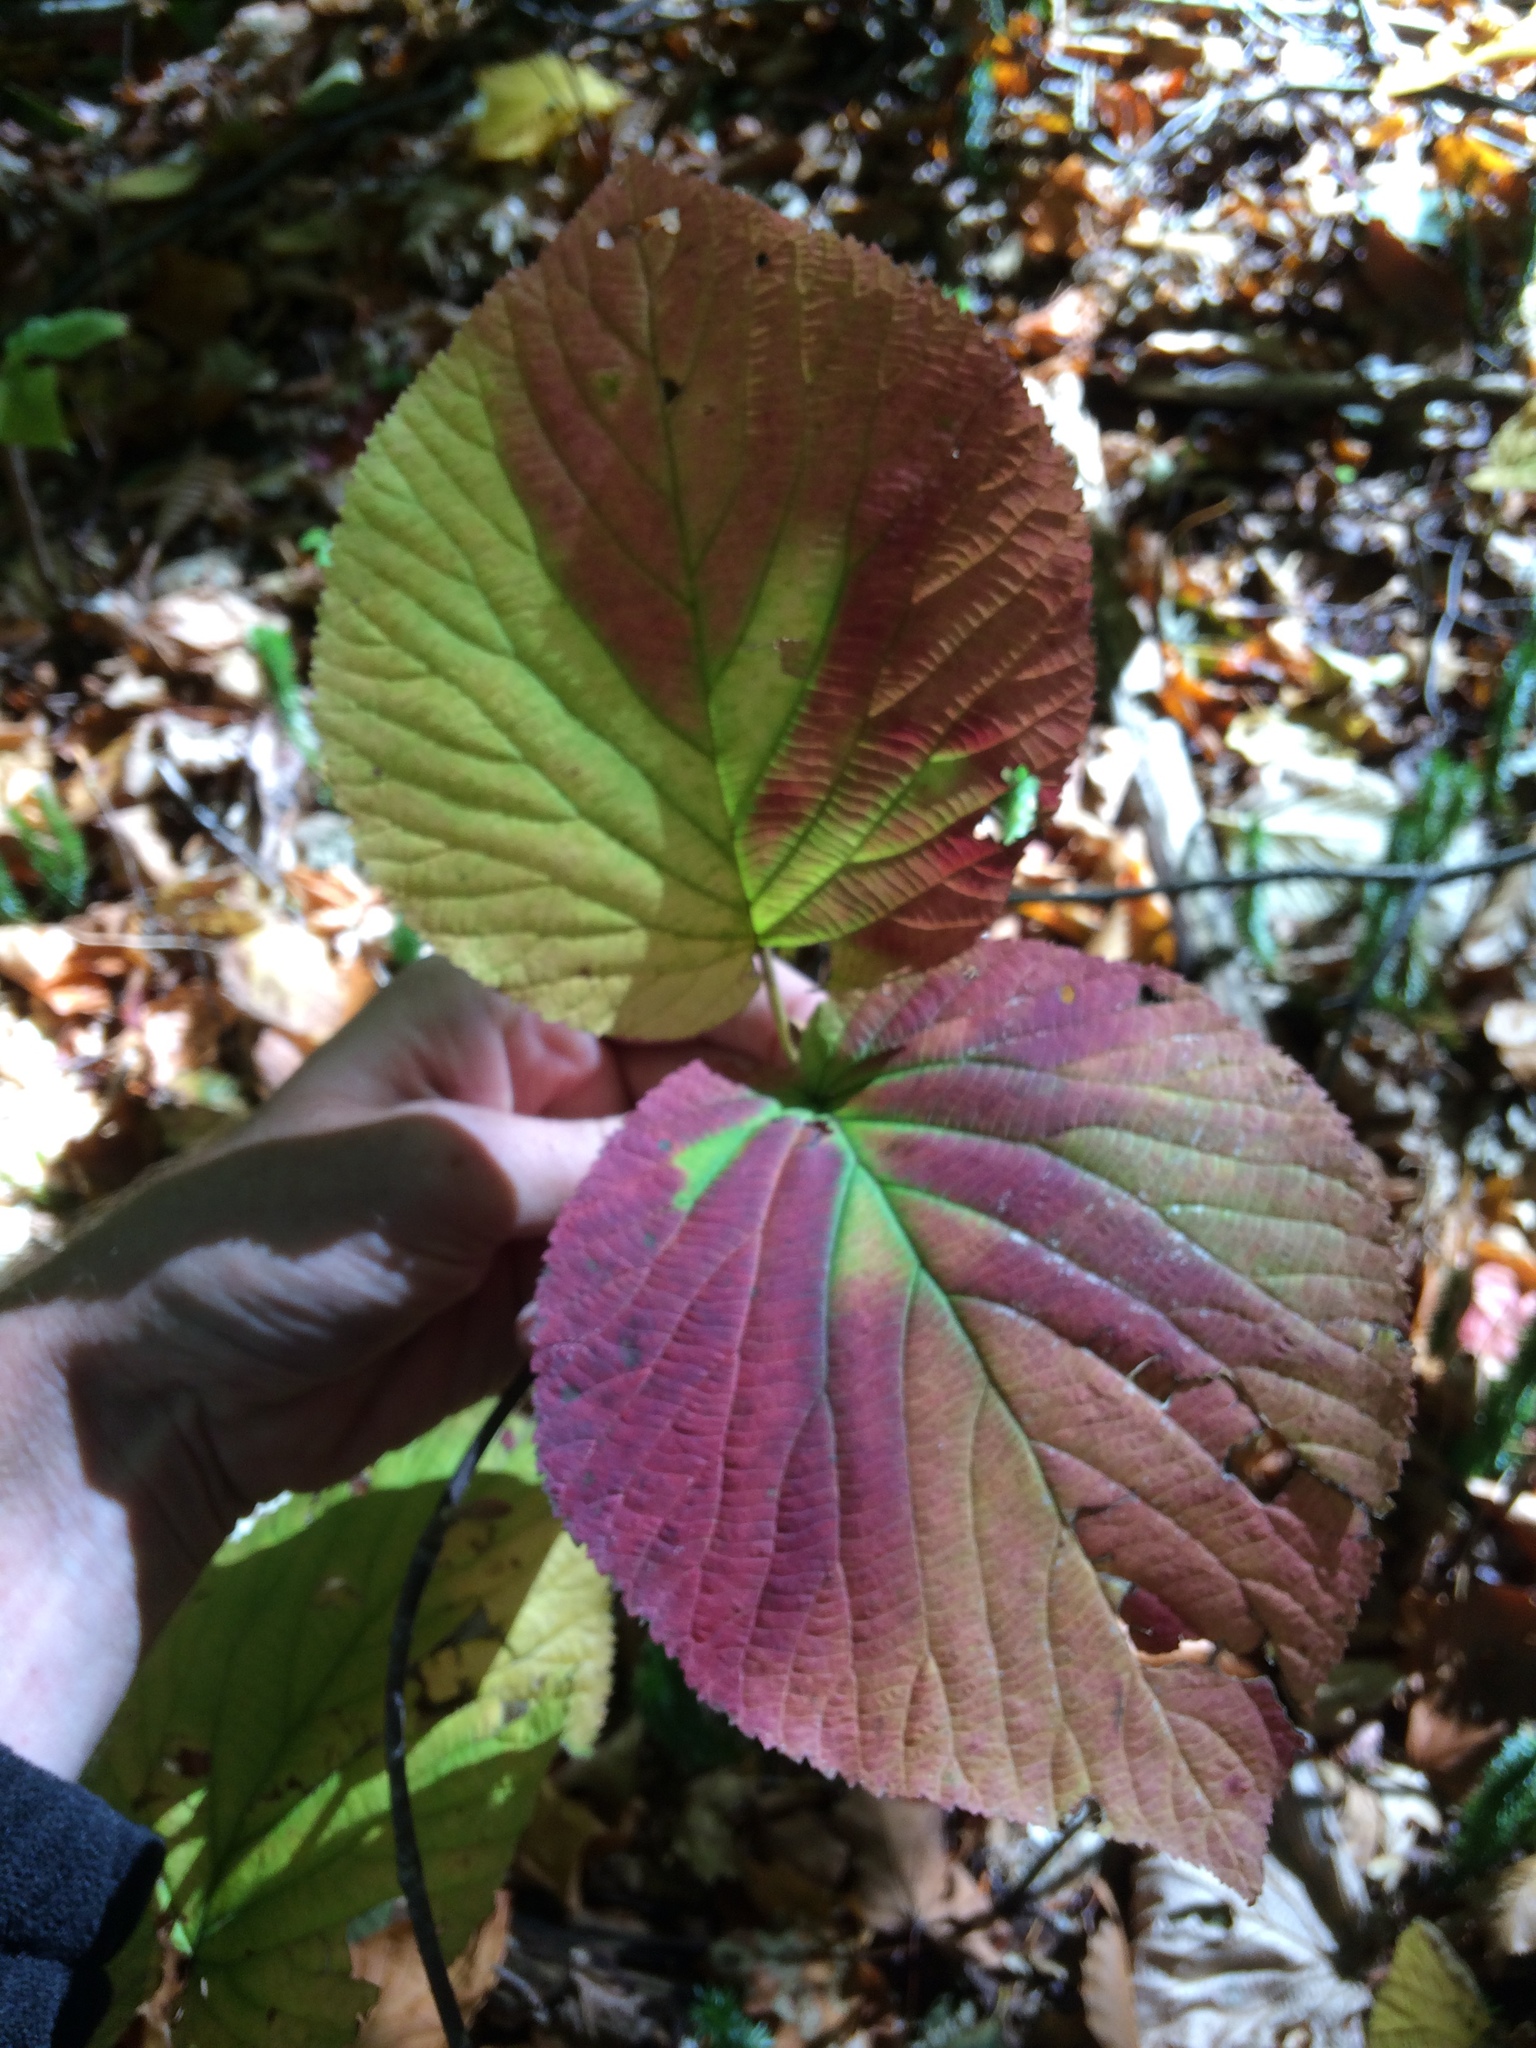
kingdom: Plantae
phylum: Tracheophyta
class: Magnoliopsida
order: Dipsacales
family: Viburnaceae
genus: Viburnum
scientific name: Viburnum lantanoides
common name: Hobblebush
